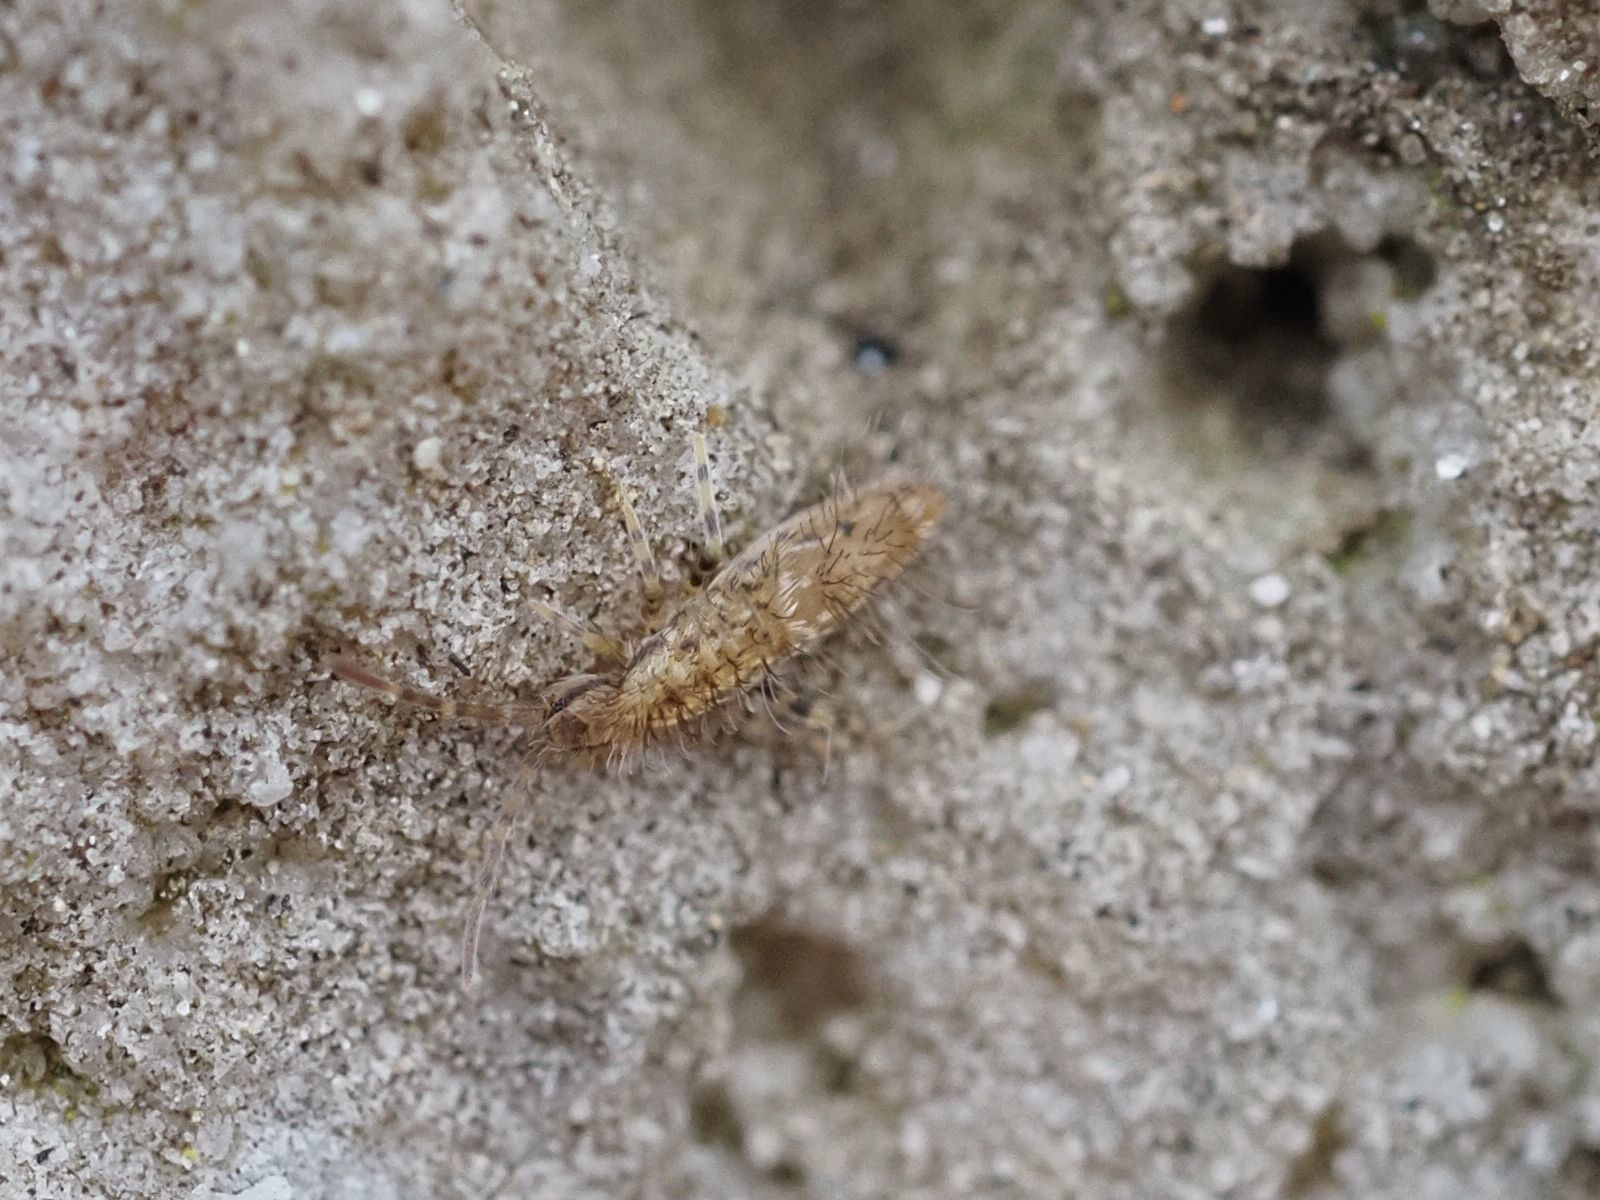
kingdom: Animalia
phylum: Arthropoda
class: Collembola
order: Entomobryomorpha
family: Entomobryidae
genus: Entomobrya
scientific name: Entomobrya dorsalis
